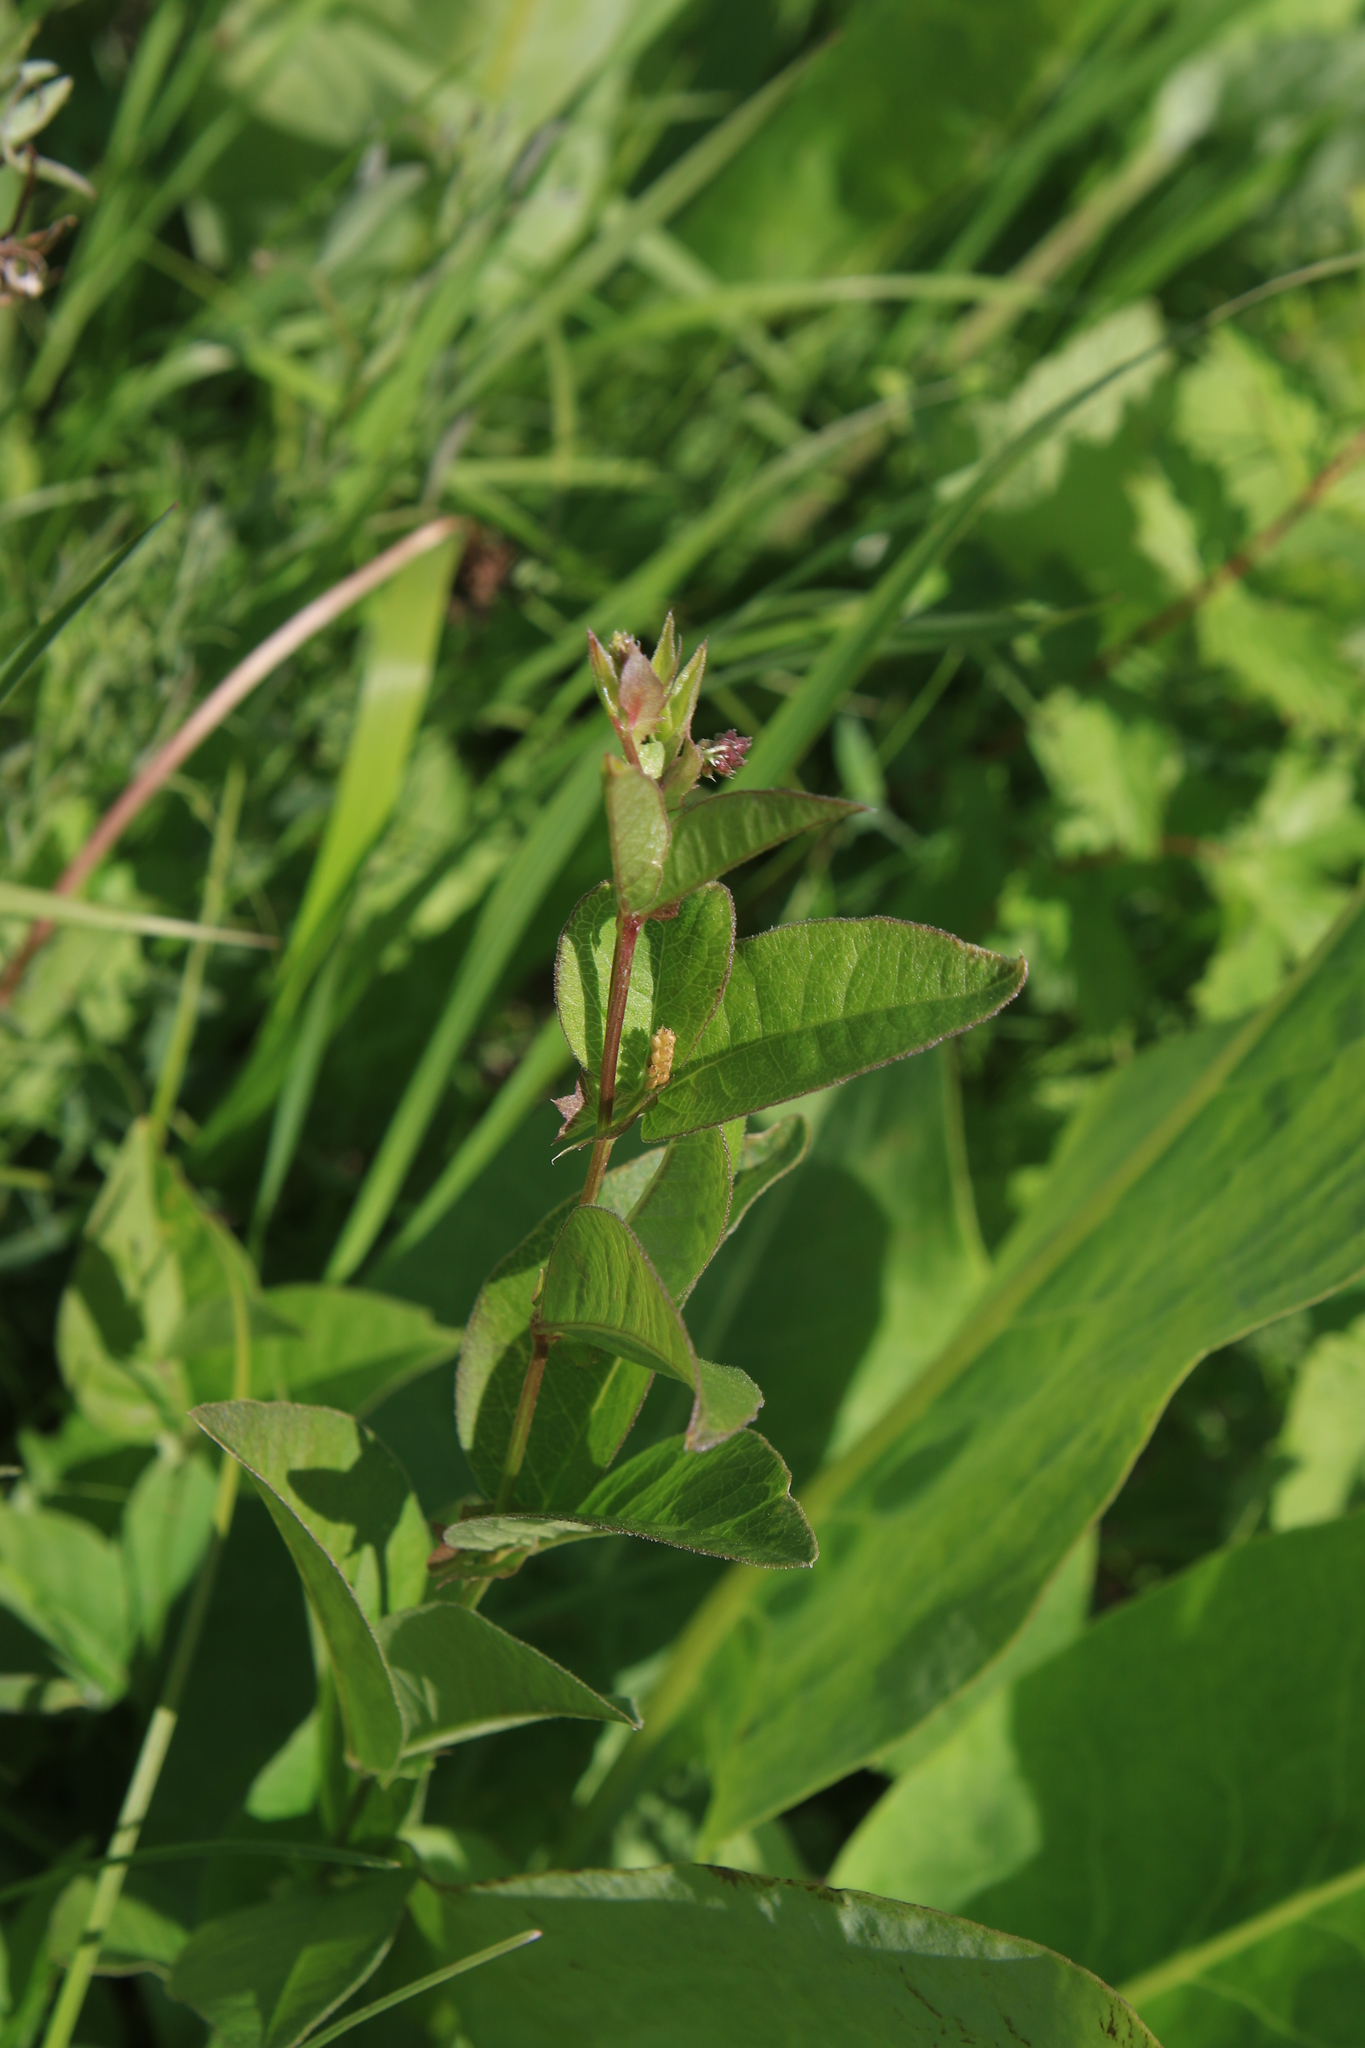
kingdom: Plantae
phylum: Tracheophyta
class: Magnoliopsida
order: Fabales
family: Fabaceae
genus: Vicia
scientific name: Vicia unijuga
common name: Two-leaf vetch
